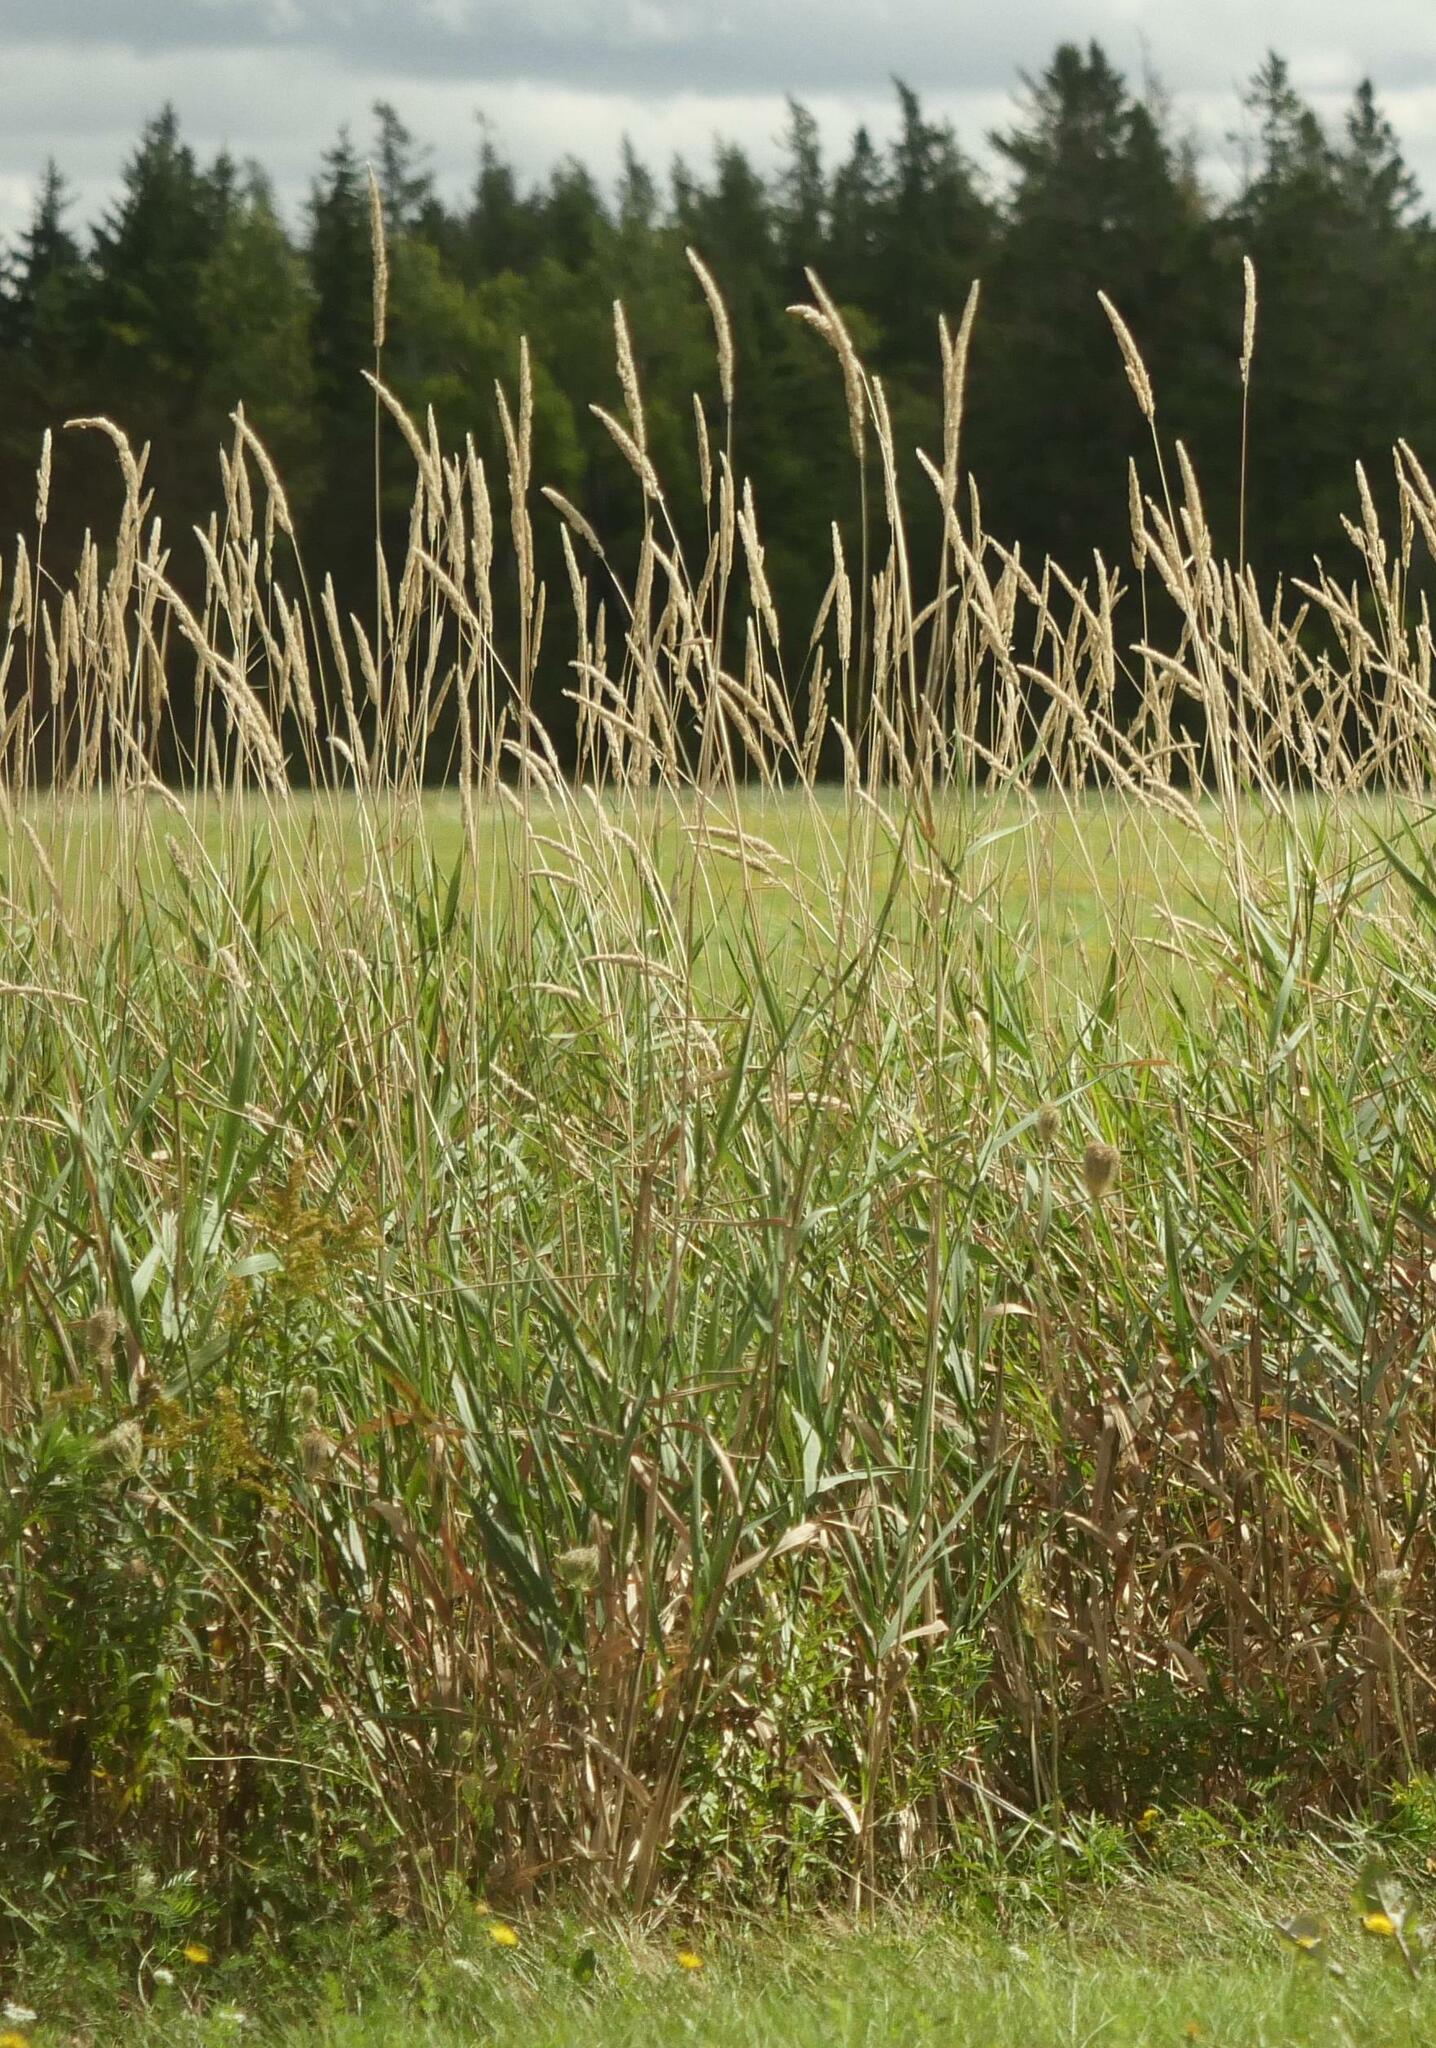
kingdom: Plantae
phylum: Tracheophyta
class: Liliopsida
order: Poales
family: Poaceae
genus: Phalaris
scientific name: Phalaris arundinacea
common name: Reed canary-grass
